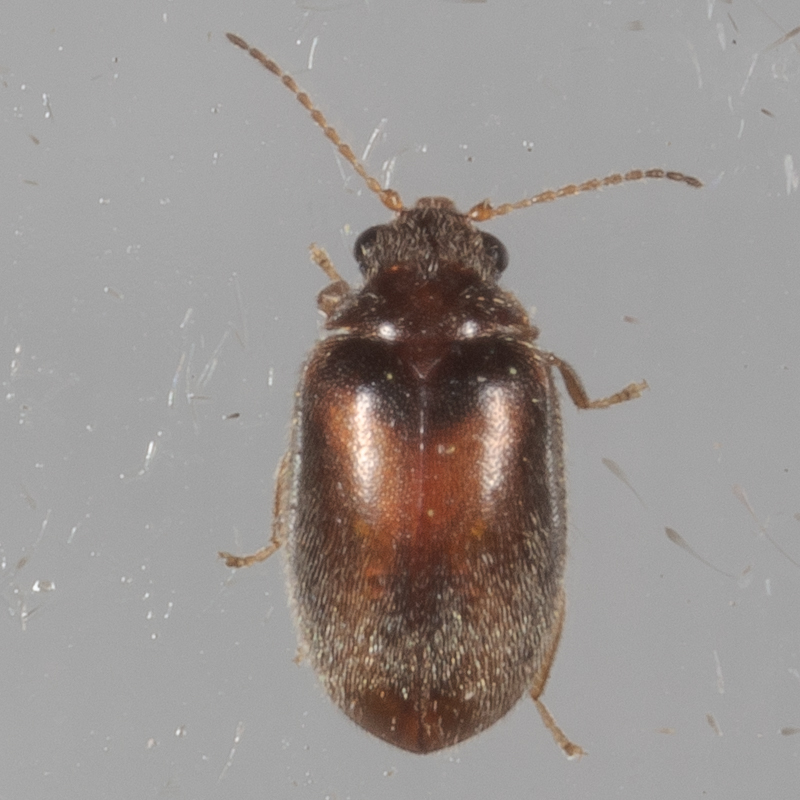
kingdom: Animalia
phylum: Arthropoda
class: Insecta
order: Coleoptera
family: Scirtidae
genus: Contacyphon
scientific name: Contacyphon
